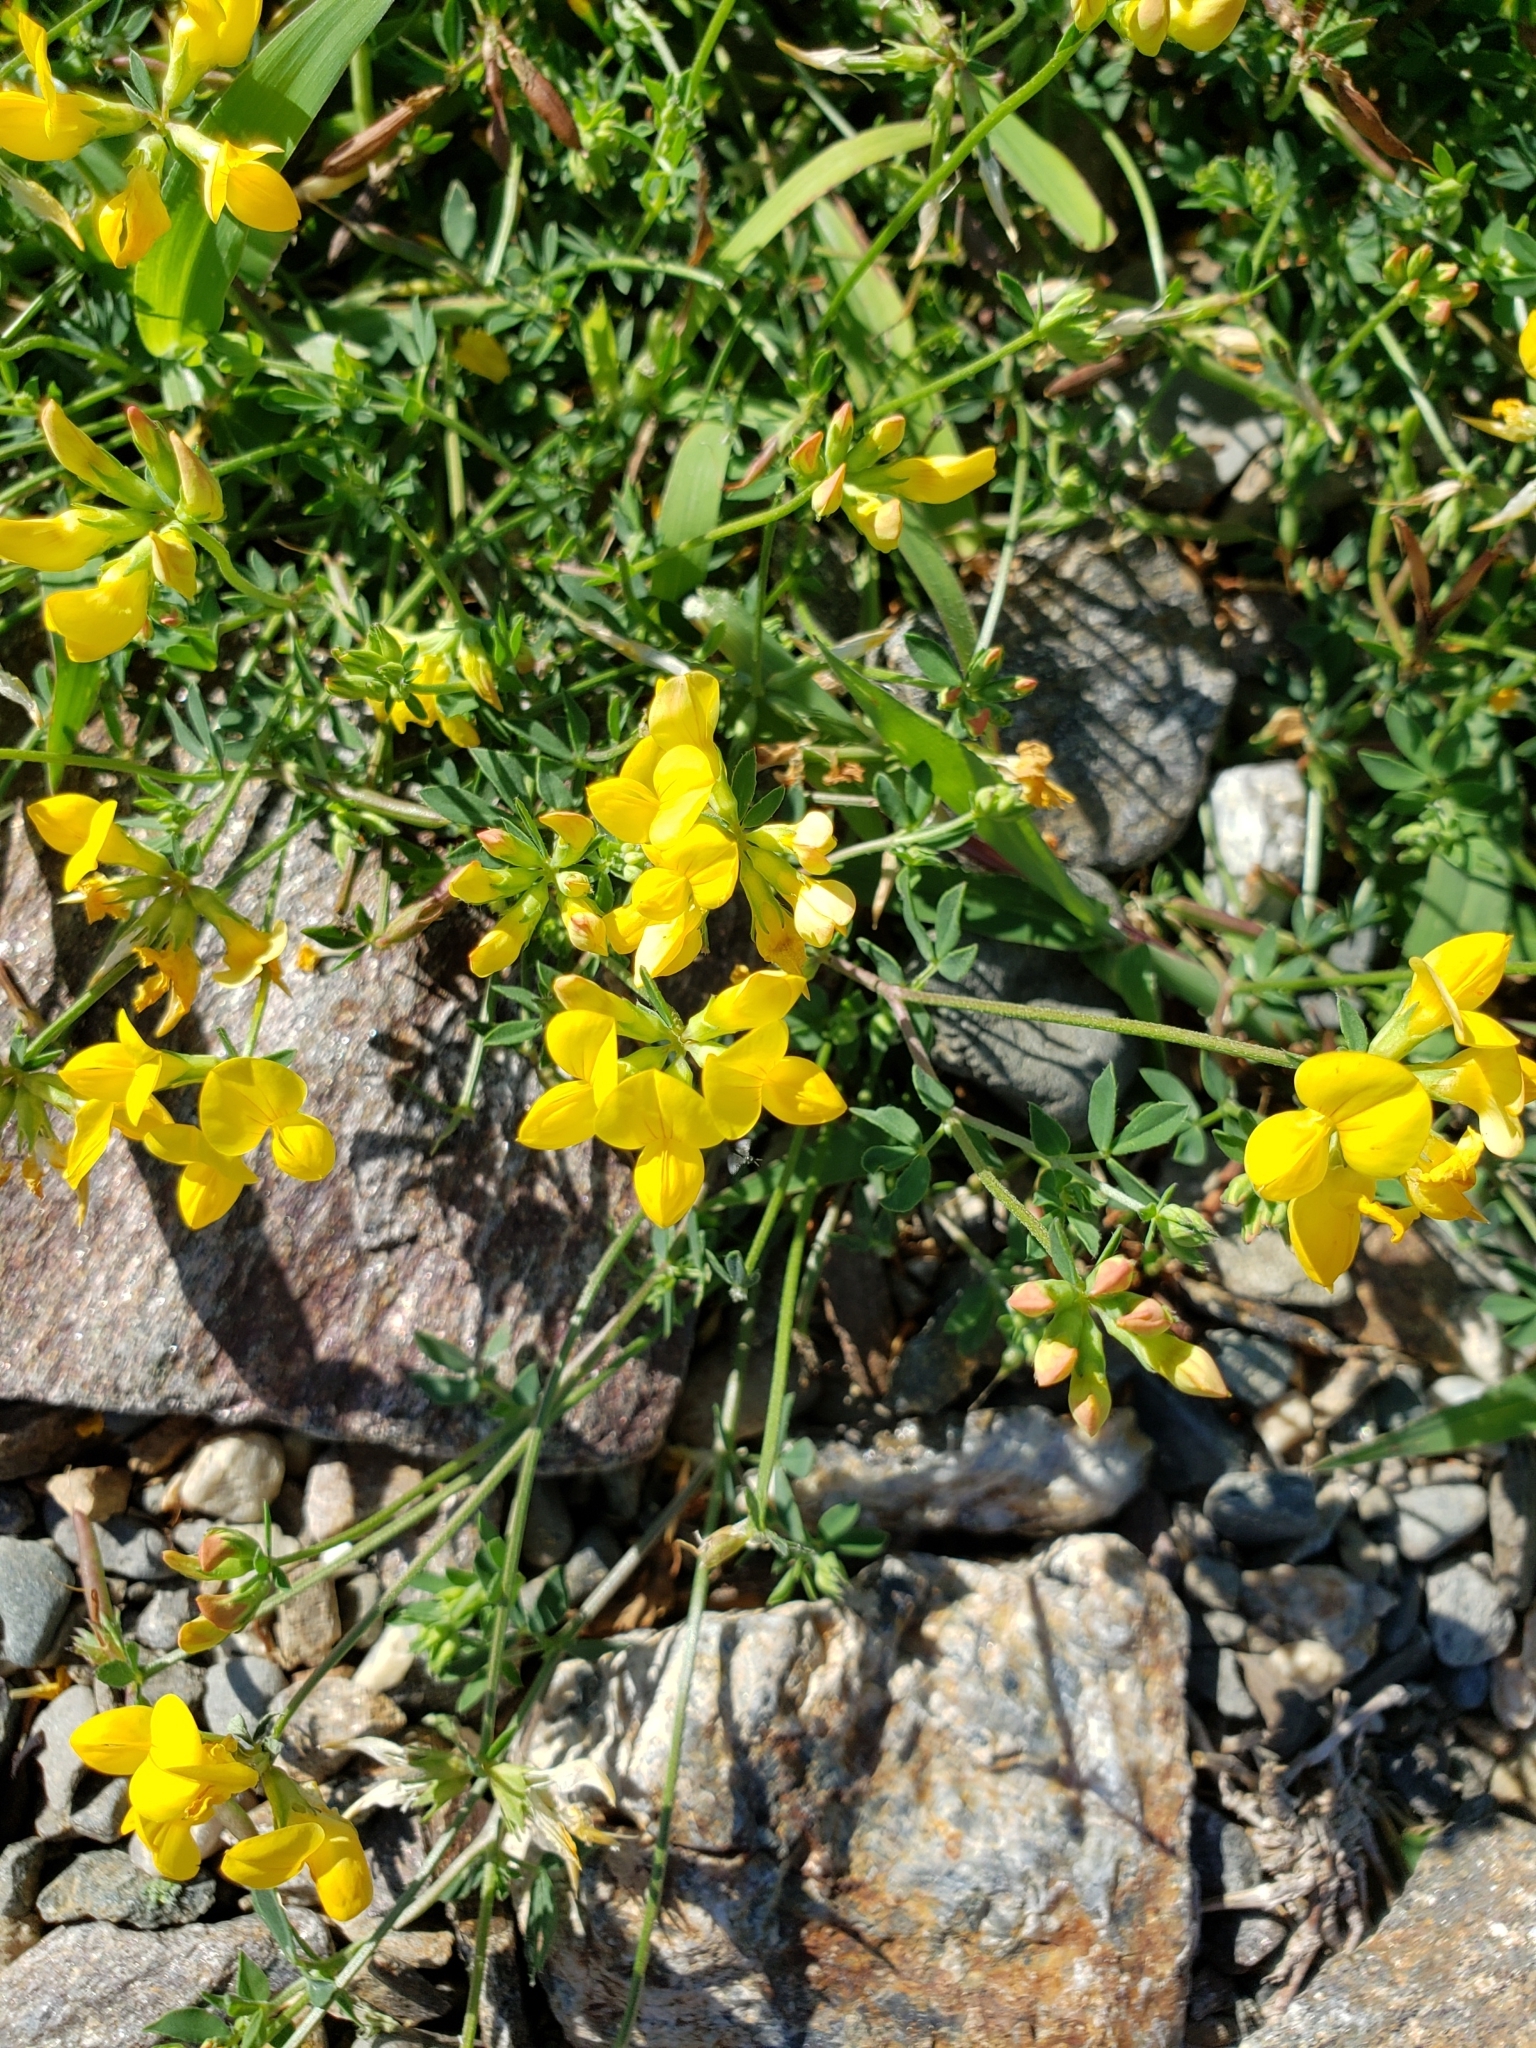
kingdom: Plantae
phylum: Tracheophyta
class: Magnoliopsida
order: Fabales
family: Fabaceae
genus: Lotus
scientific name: Lotus corniculatus
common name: Common bird's-foot-trefoil
